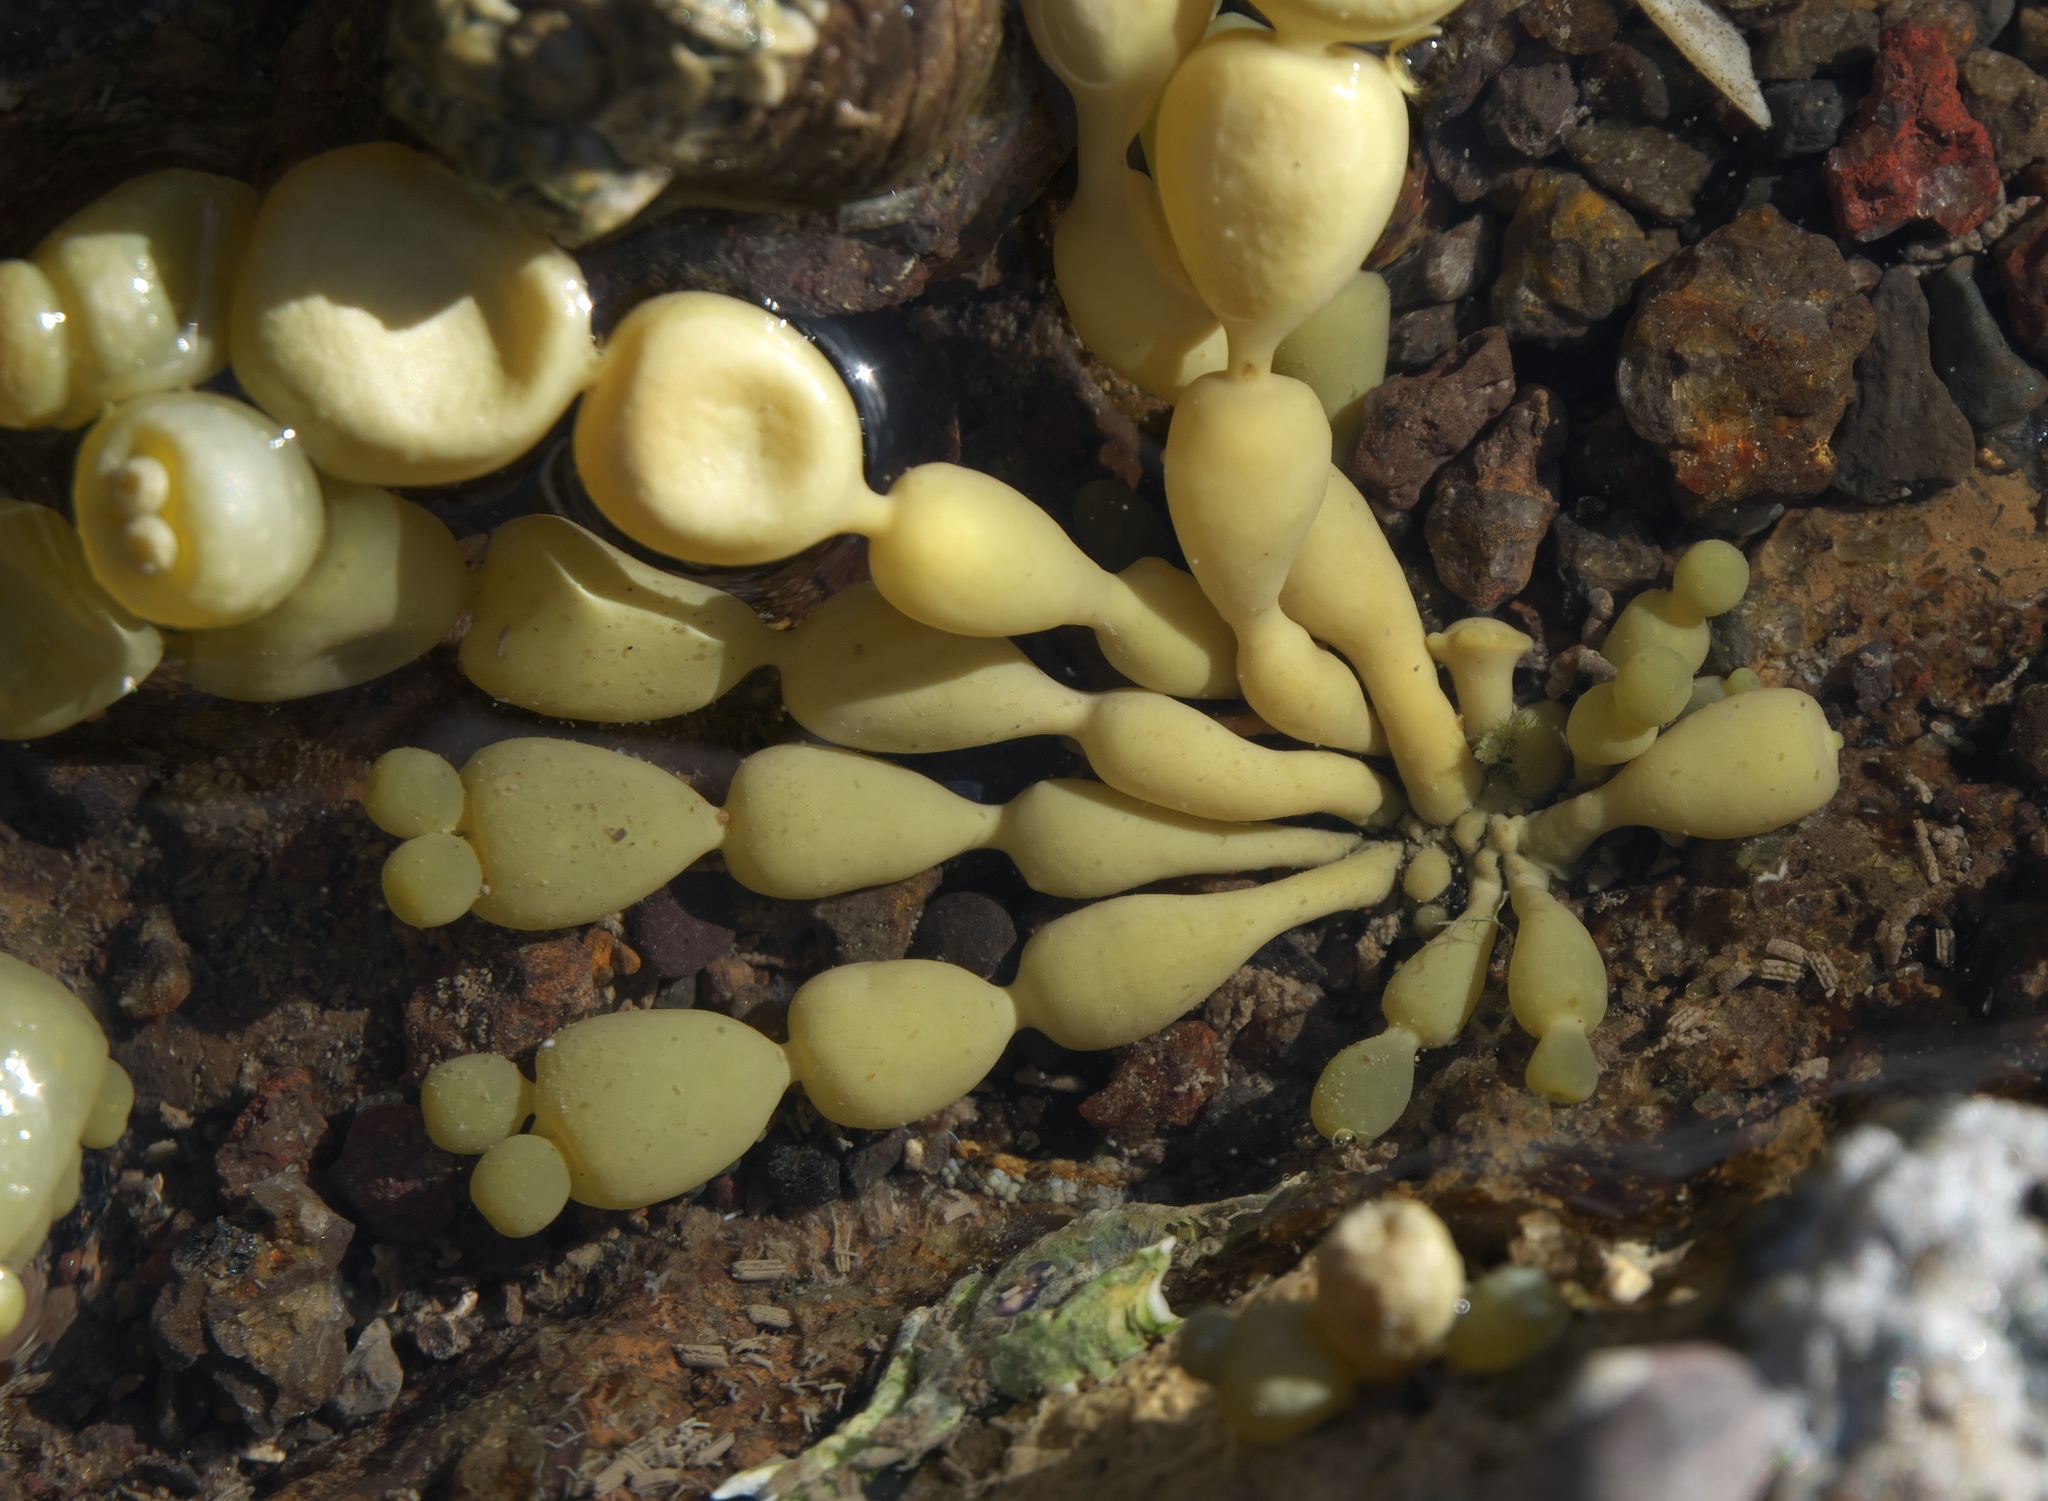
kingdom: Chromista
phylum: Ochrophyta
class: Phaeophyceae
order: Fucales
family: Hormosiraceae
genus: Hormosira
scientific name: Hormosira banksii
